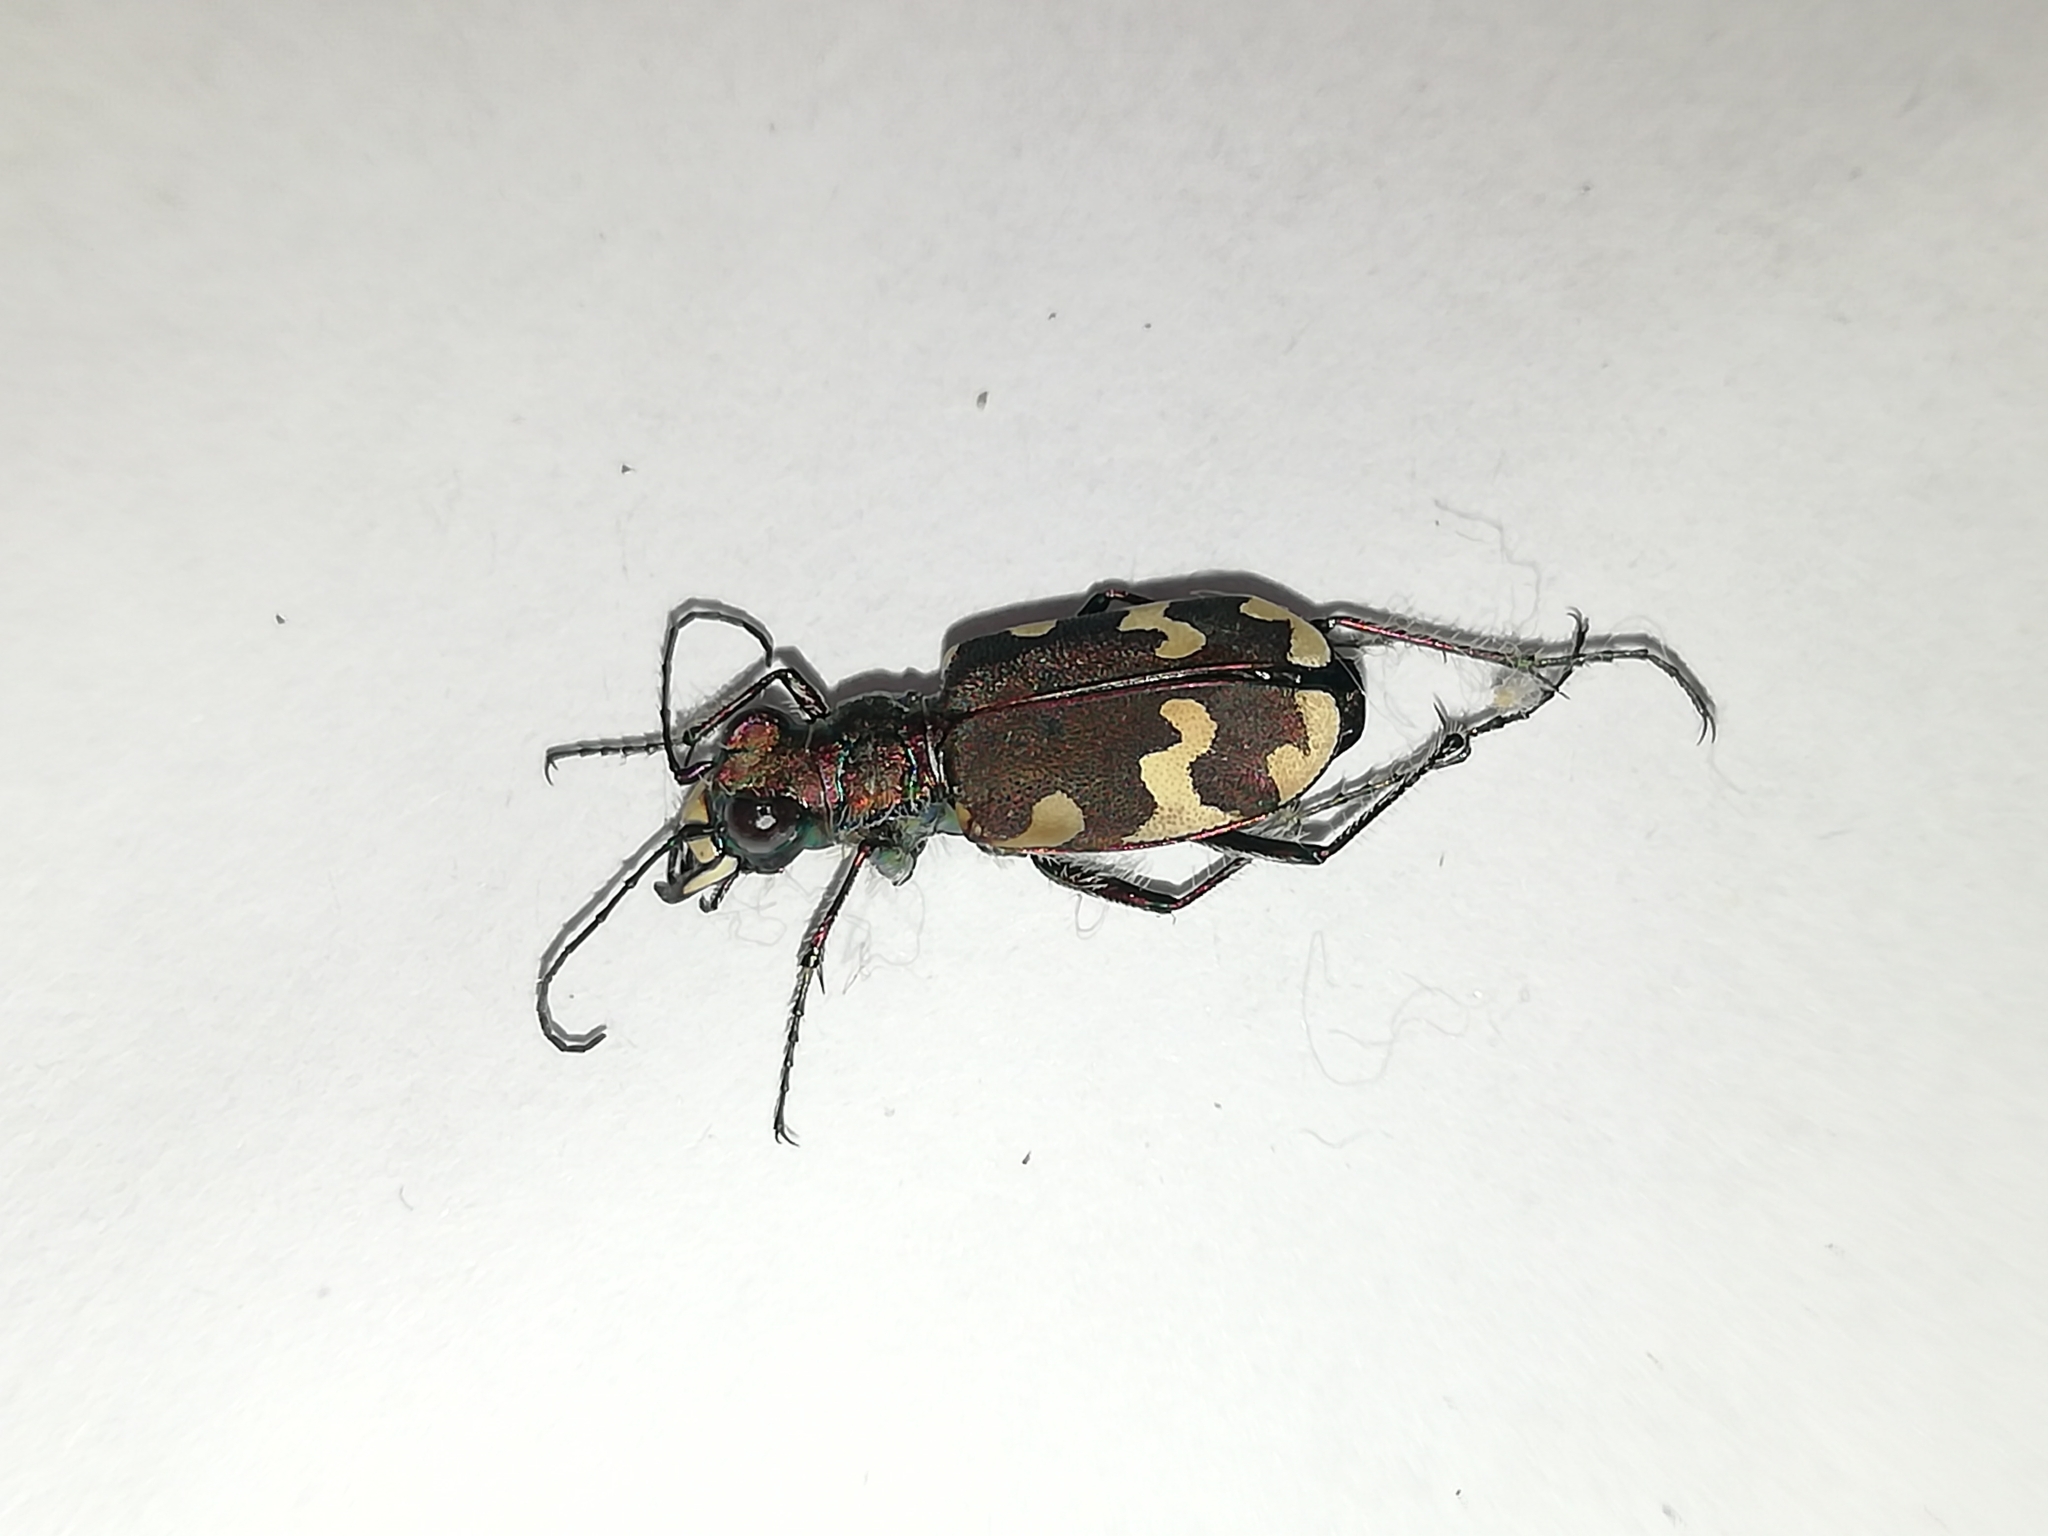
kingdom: Animalia
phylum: Arthropoda
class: Insecta
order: Coleoptera
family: Carabidae
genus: Cicindela
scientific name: Cicindela hybrida
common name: Northern dune tiger beetle
